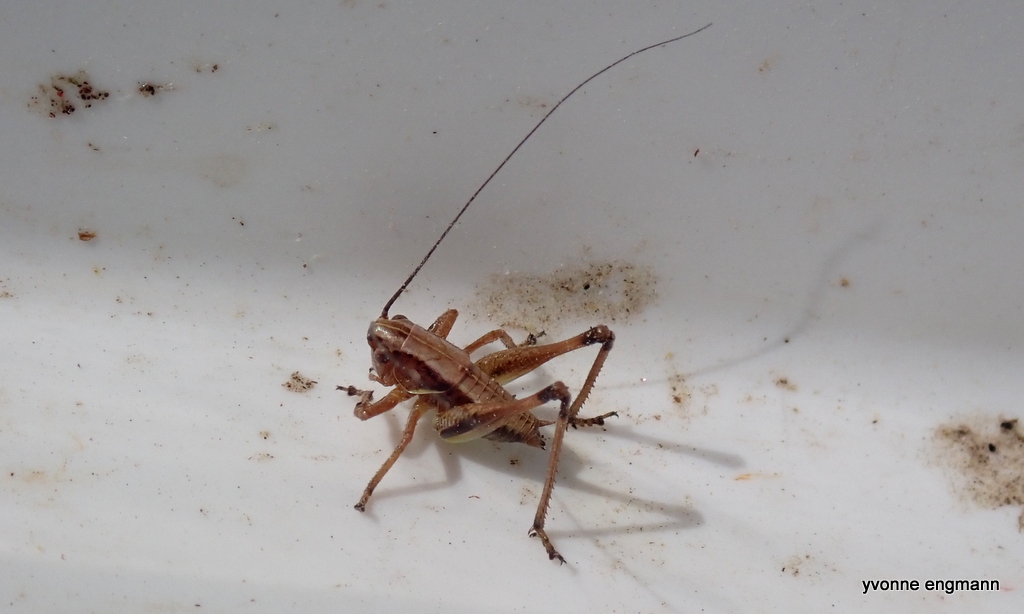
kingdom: Animalia
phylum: Arthropoda
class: Insecta
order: Orthoptera
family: Tettigoniidae
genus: Pholidoptera
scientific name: Pholidoptera griseoaptera
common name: Dark bush-cricket
